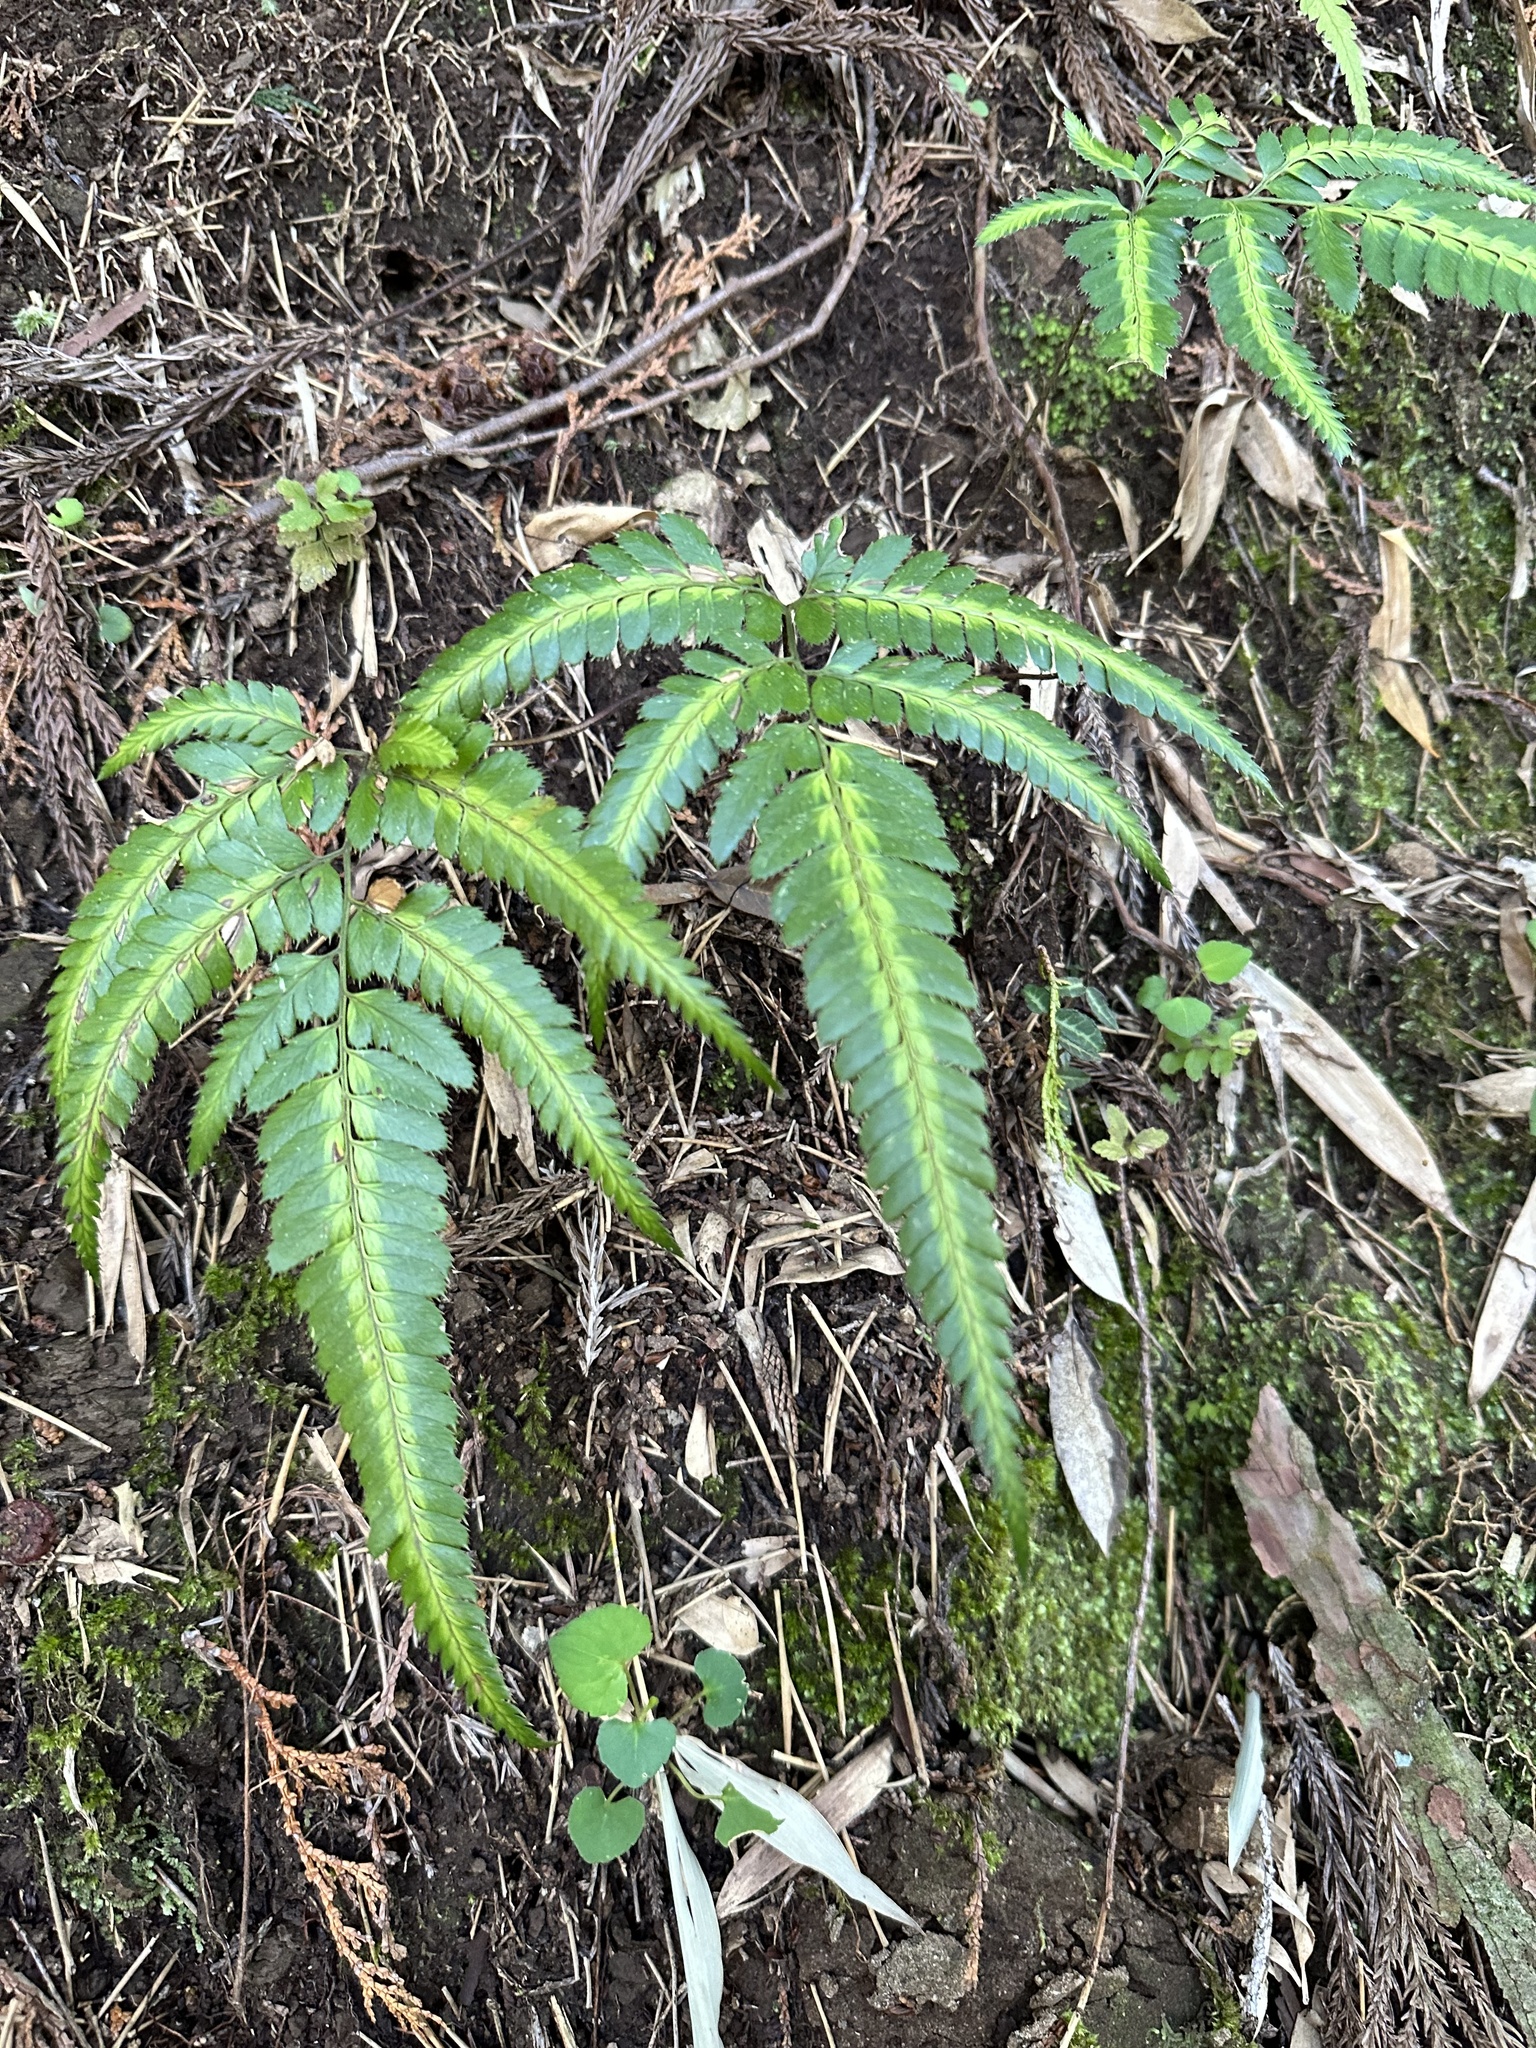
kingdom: Plantae
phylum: Tracheophyta
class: Polypodiopsida
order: Polypodiales
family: Dryopteridaceae
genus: Arachniodes
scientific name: Arachniodes simplicior
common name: Simpler hollyfern
